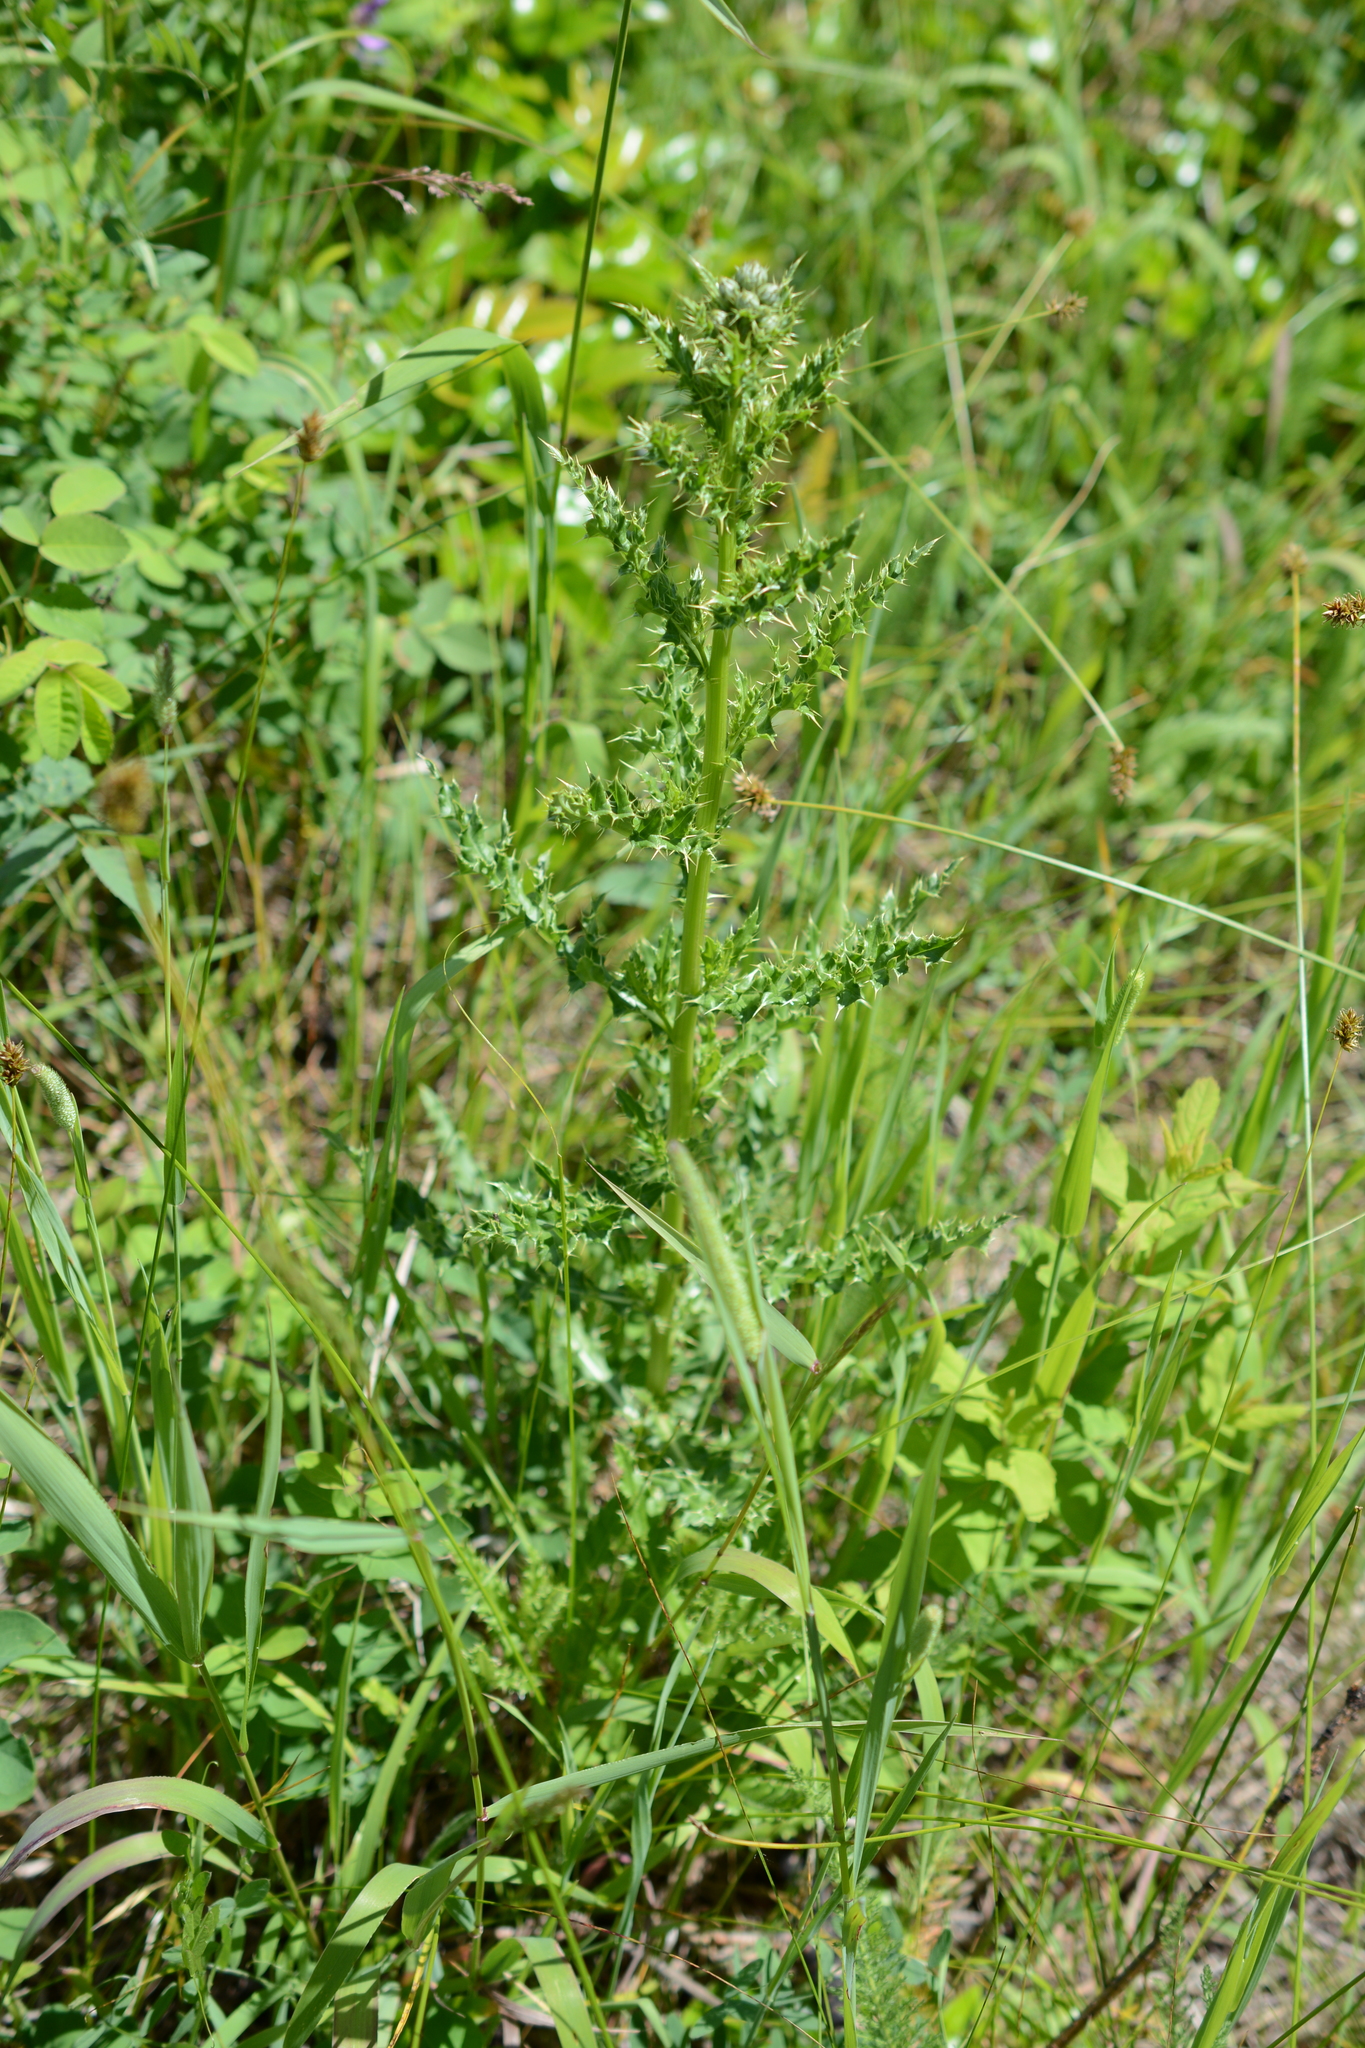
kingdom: Plantae
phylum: Tracheophyta
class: Magnoliopsida
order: Asterales
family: Asteraceae
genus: Cirsium
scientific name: Cirsium arvense
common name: Creeping thistle
